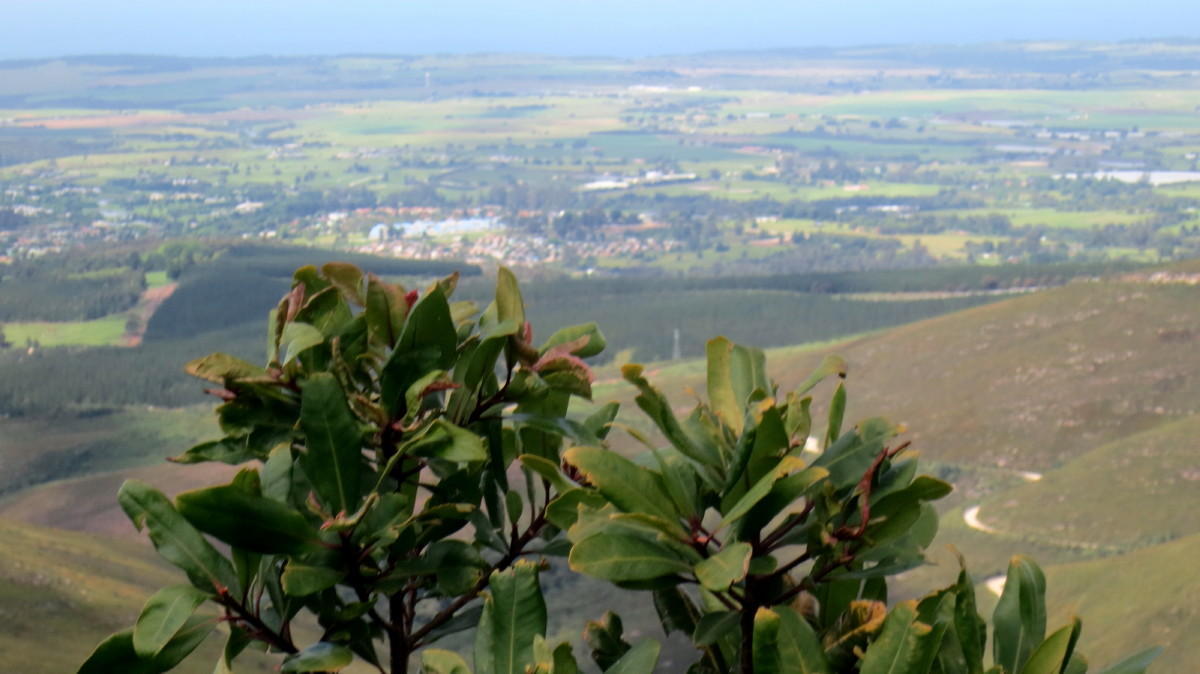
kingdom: Plantae
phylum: Tracheophyta
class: Magnoliopsida
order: Ericales
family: Primulaceae
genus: Myrsine
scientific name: Myrsine melanophloeos
